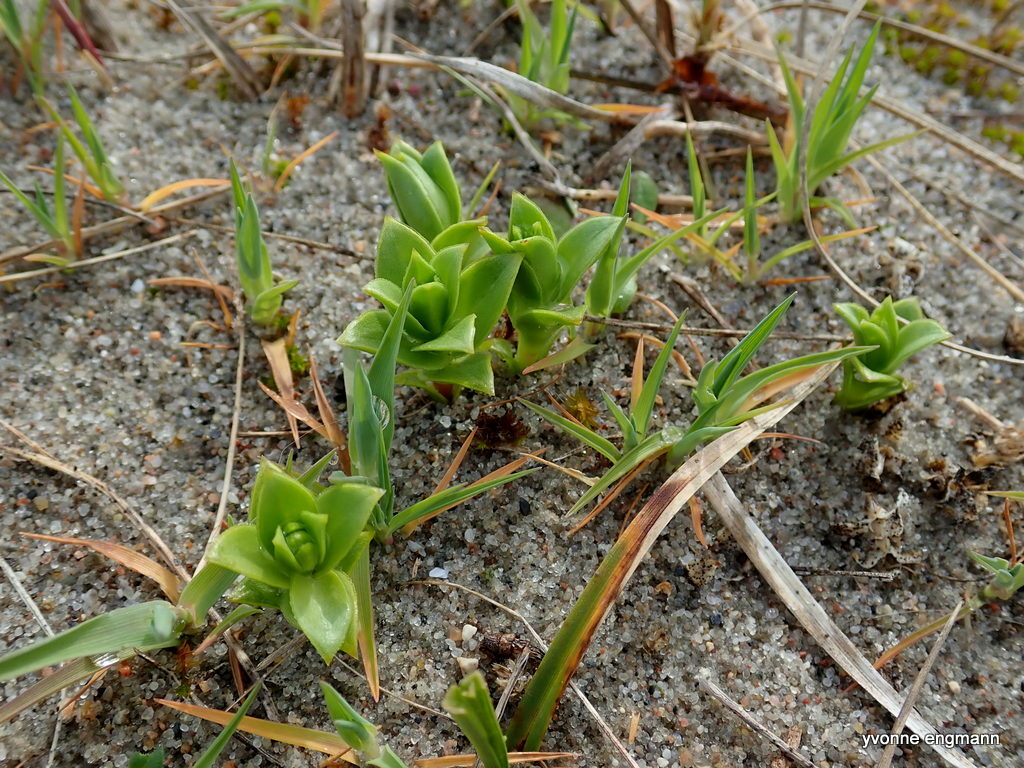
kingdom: Plantae
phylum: Tracheophyta
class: Magnoliopsida
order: Caryophyllales
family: Caryophyllaceae
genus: Honckenya
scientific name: Honckenya peploides
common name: Sea sandwort
